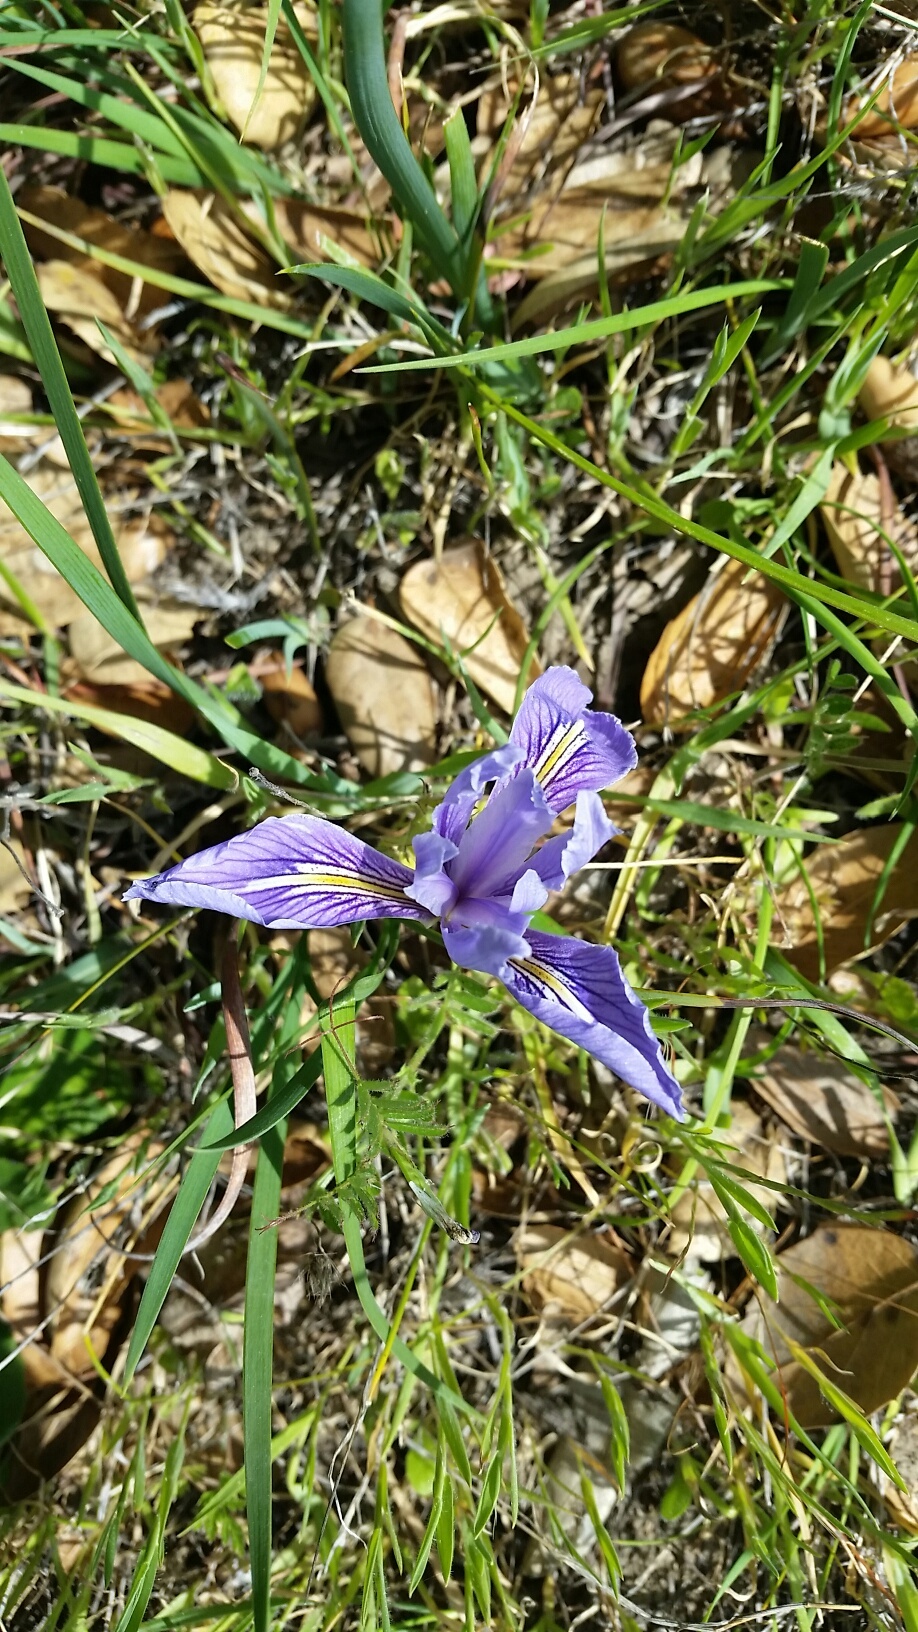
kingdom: Plantae
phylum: Tracheophyta
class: Liliopsida
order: Asparagales
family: Iridaceae
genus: Iris
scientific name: Iris macrosiphon
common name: Ground iris
